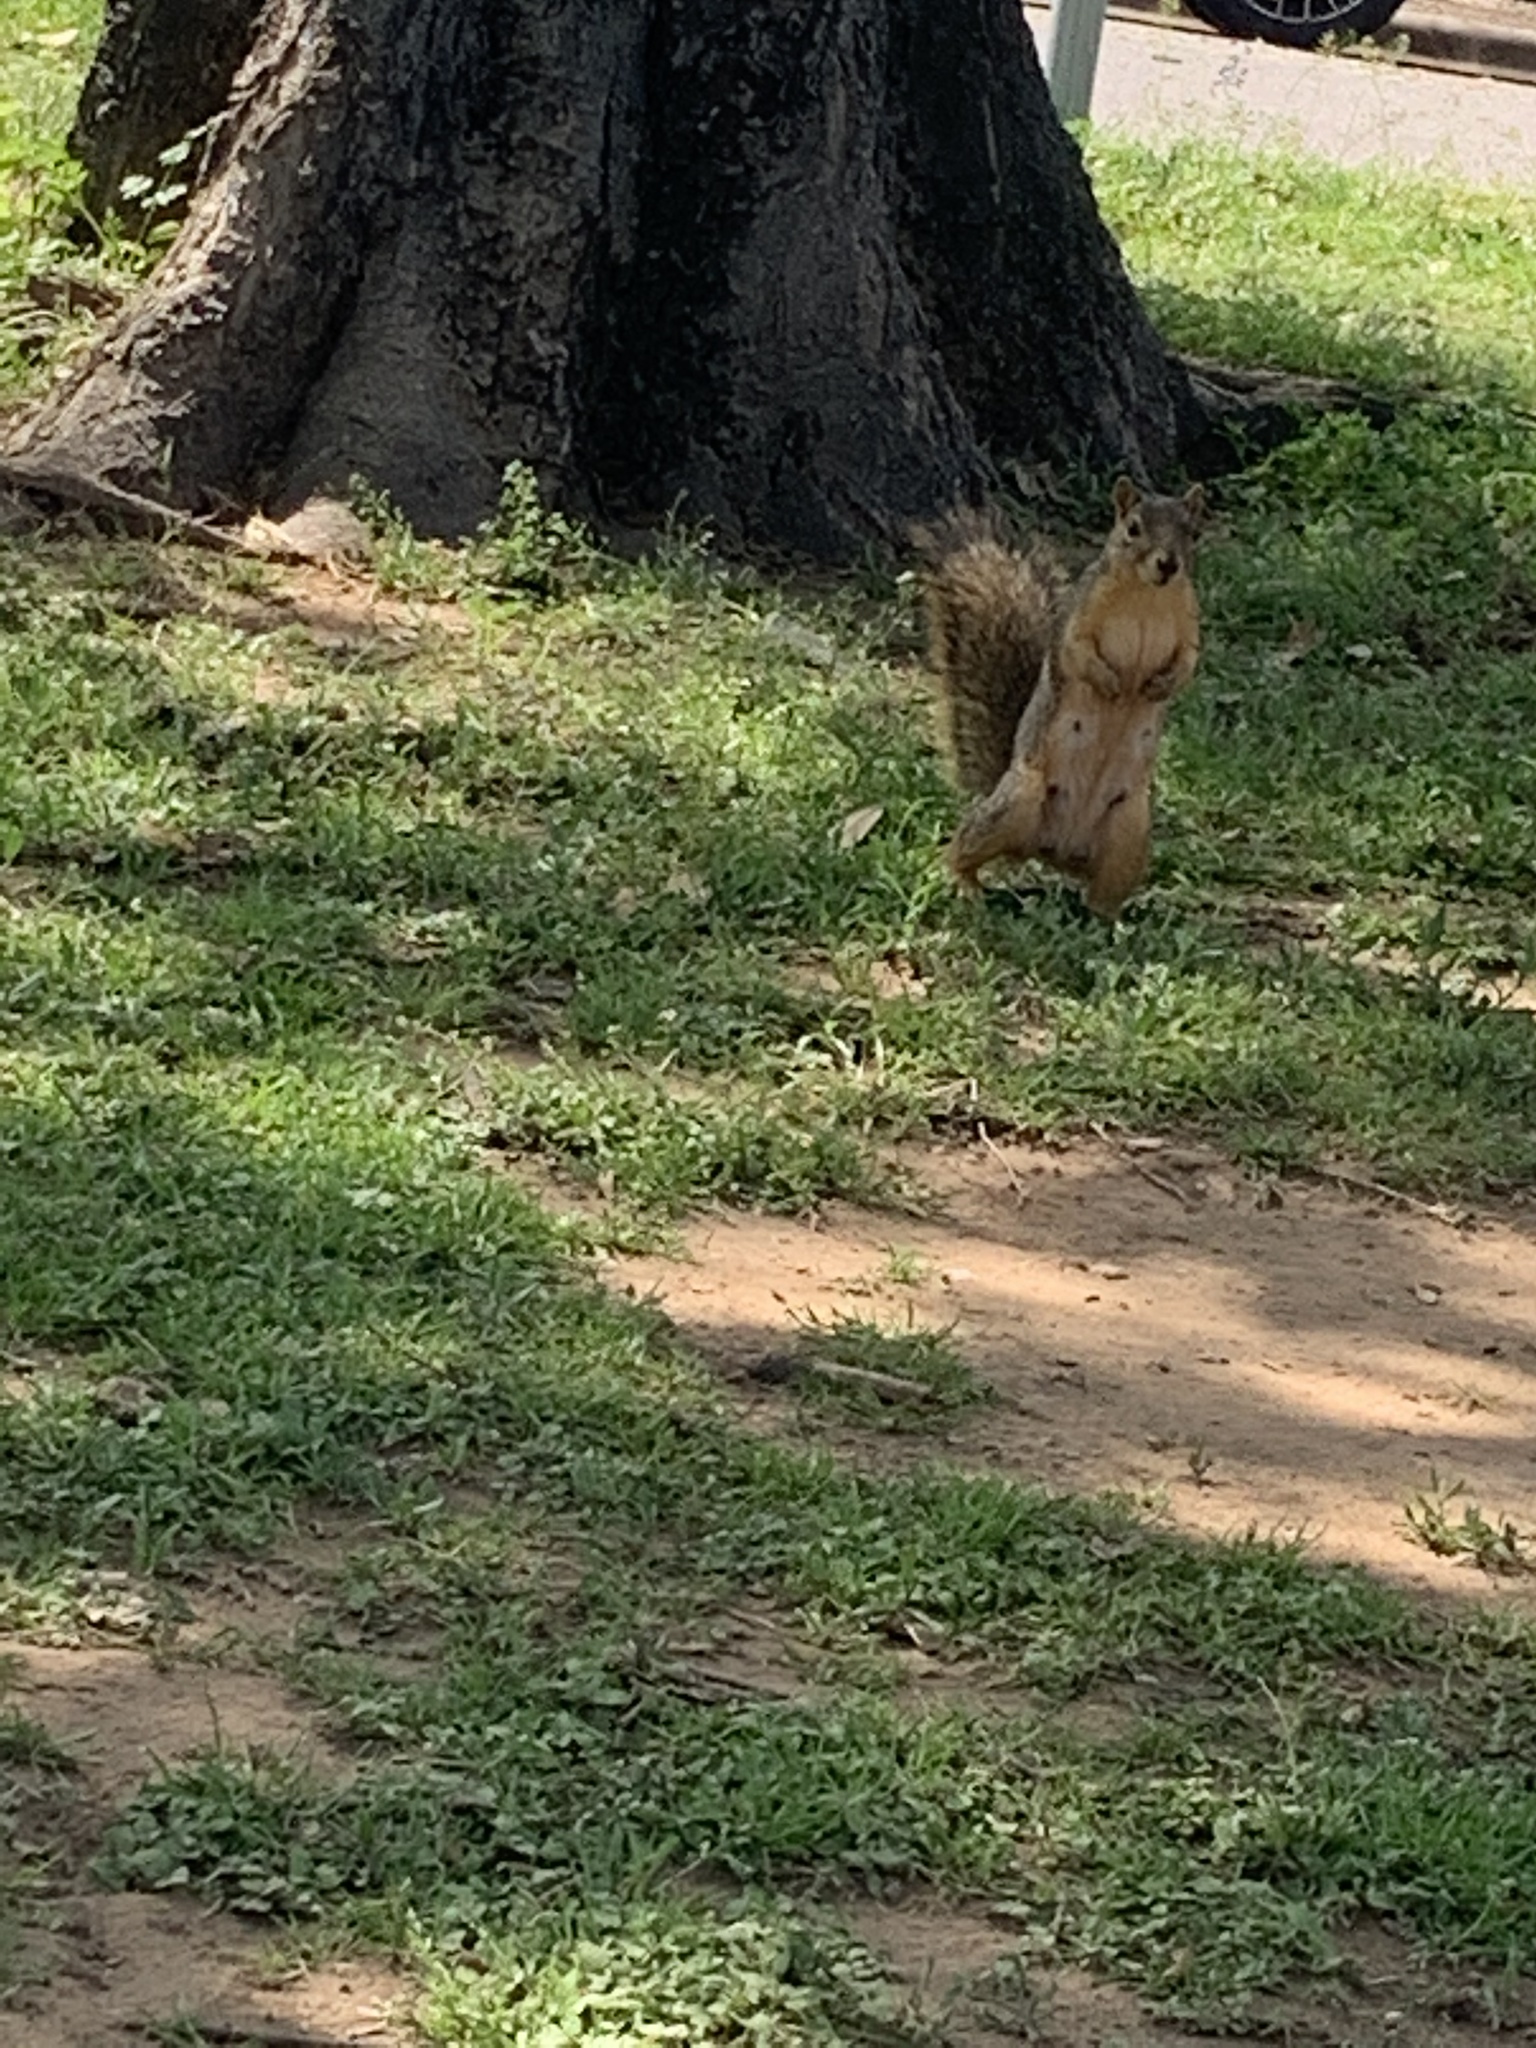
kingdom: Animalia
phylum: Chordata
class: Mammalia
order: Rodentia
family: Sciuridae
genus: Sciurus
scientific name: Sciurus niger
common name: Fox squirrel
